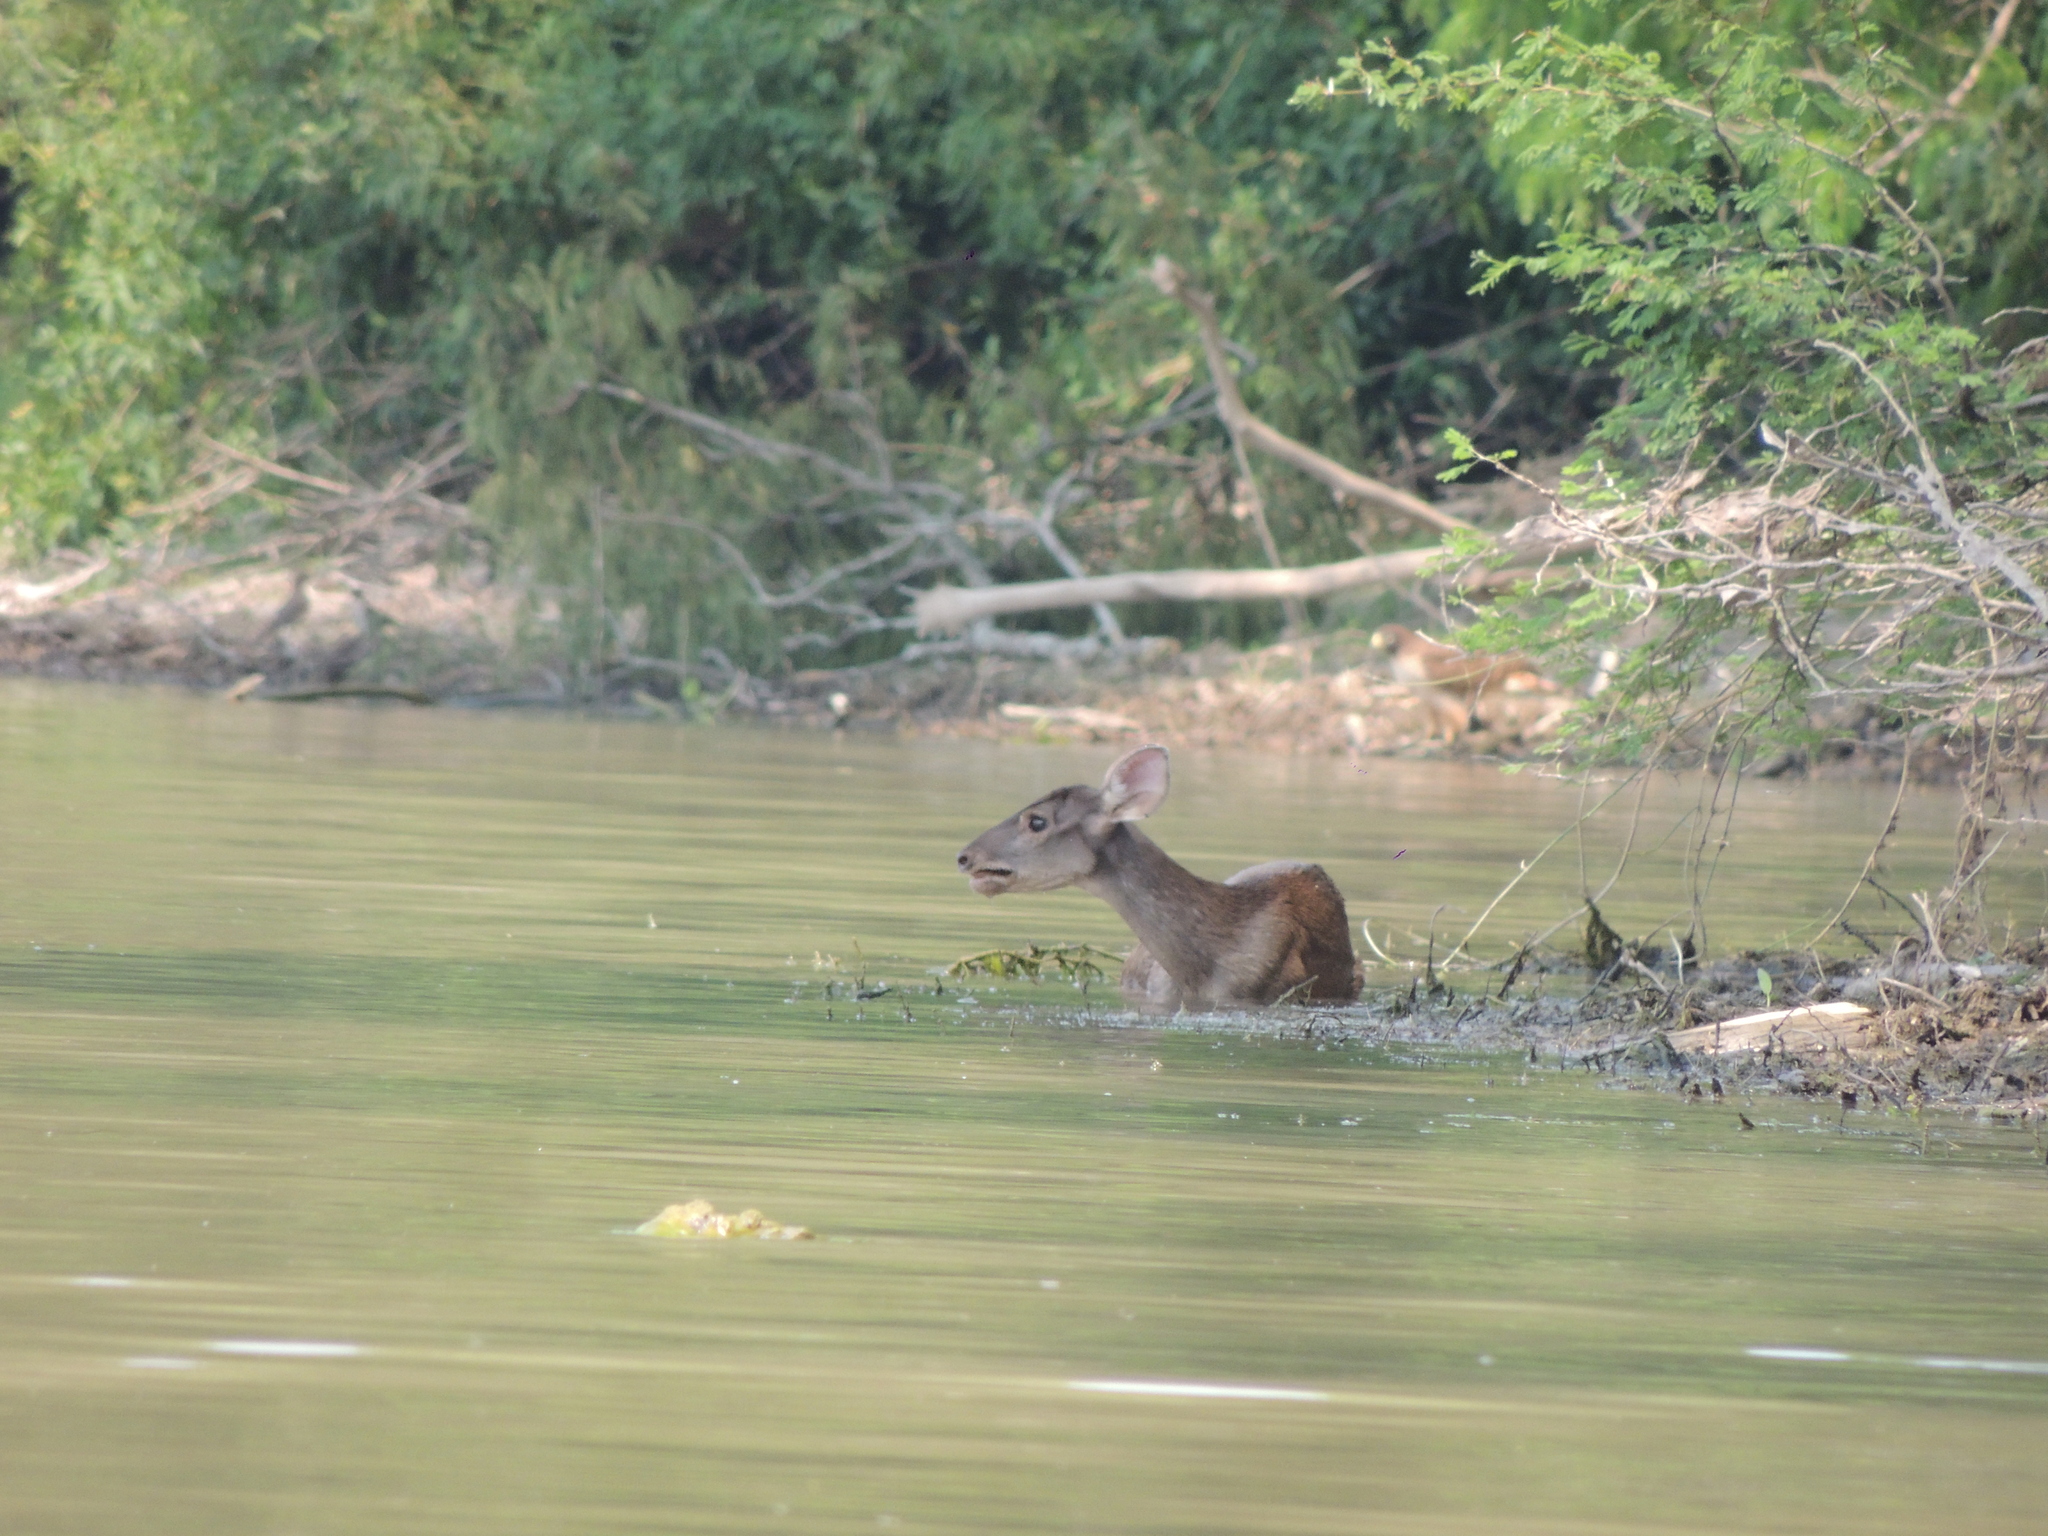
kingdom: Animalia
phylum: Chordata
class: Mammalia
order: Artiodactyla
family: Cervidae
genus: Mazama
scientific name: Mazama gouazoubira
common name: Gray brocket
